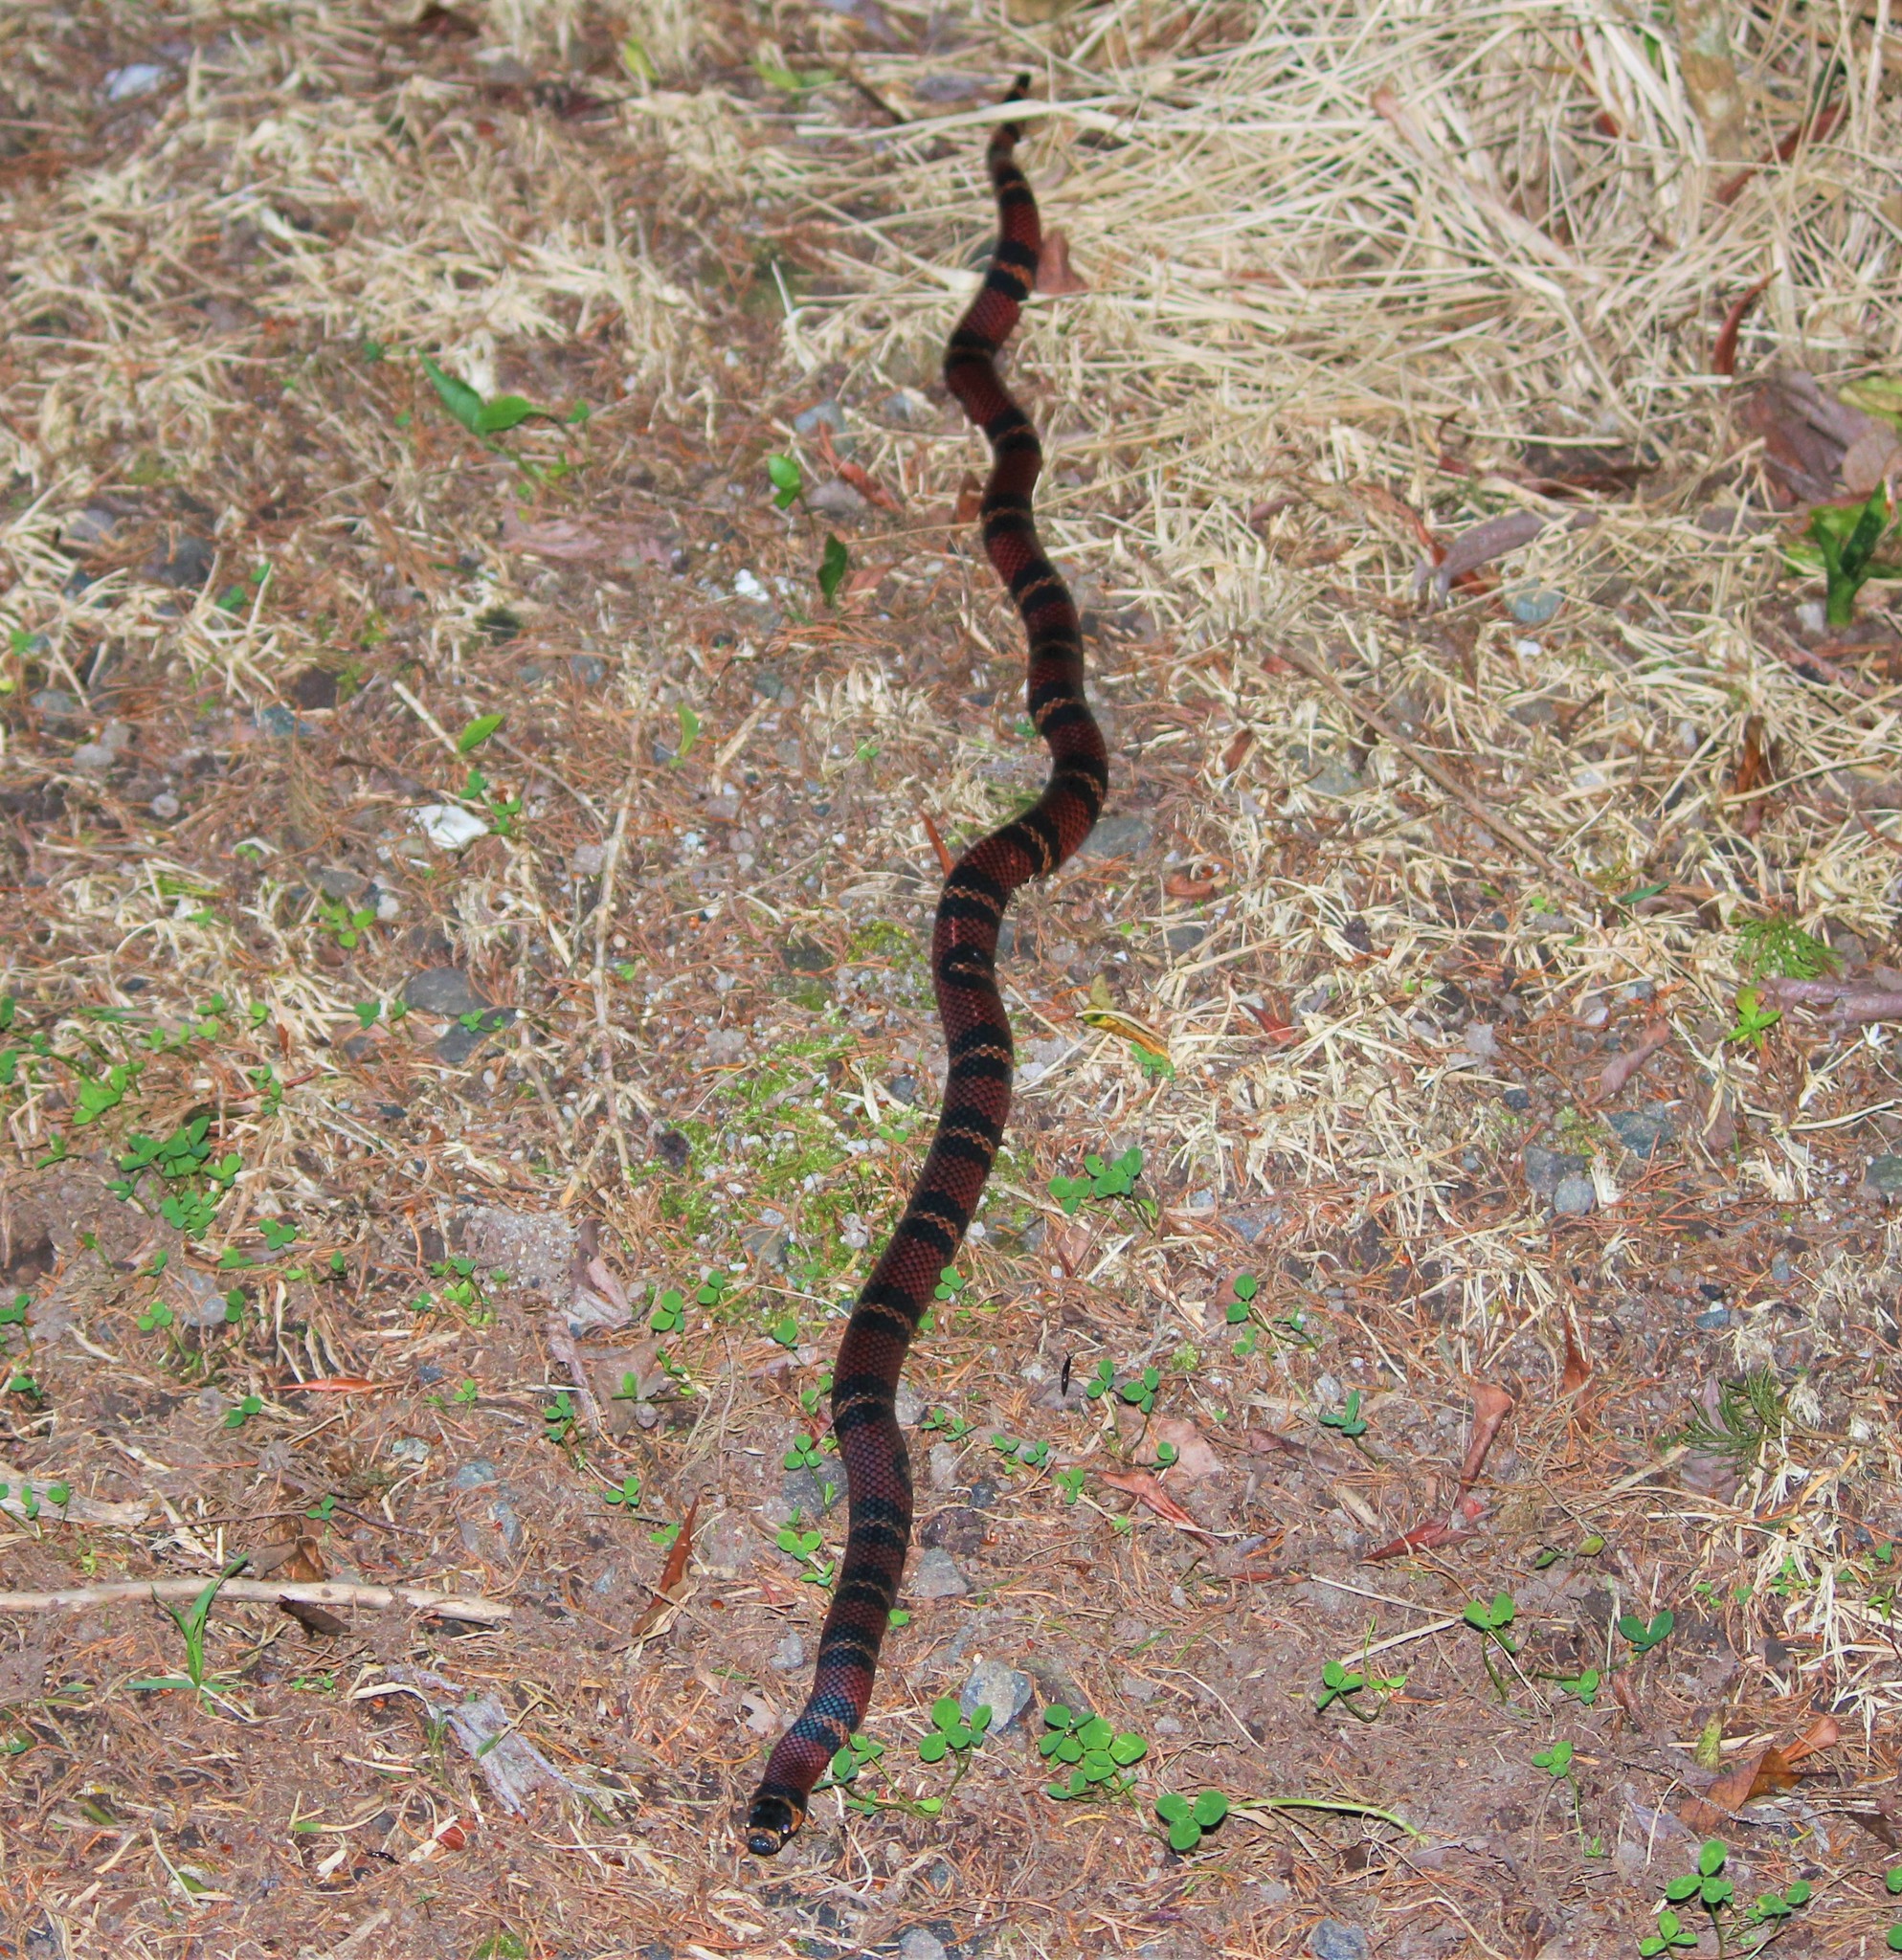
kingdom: Animalia
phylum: Chordata
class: Squamata
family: Colubridae
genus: Lampropeltis
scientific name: Lampropeltis abnorma
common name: Honduran milk snake
